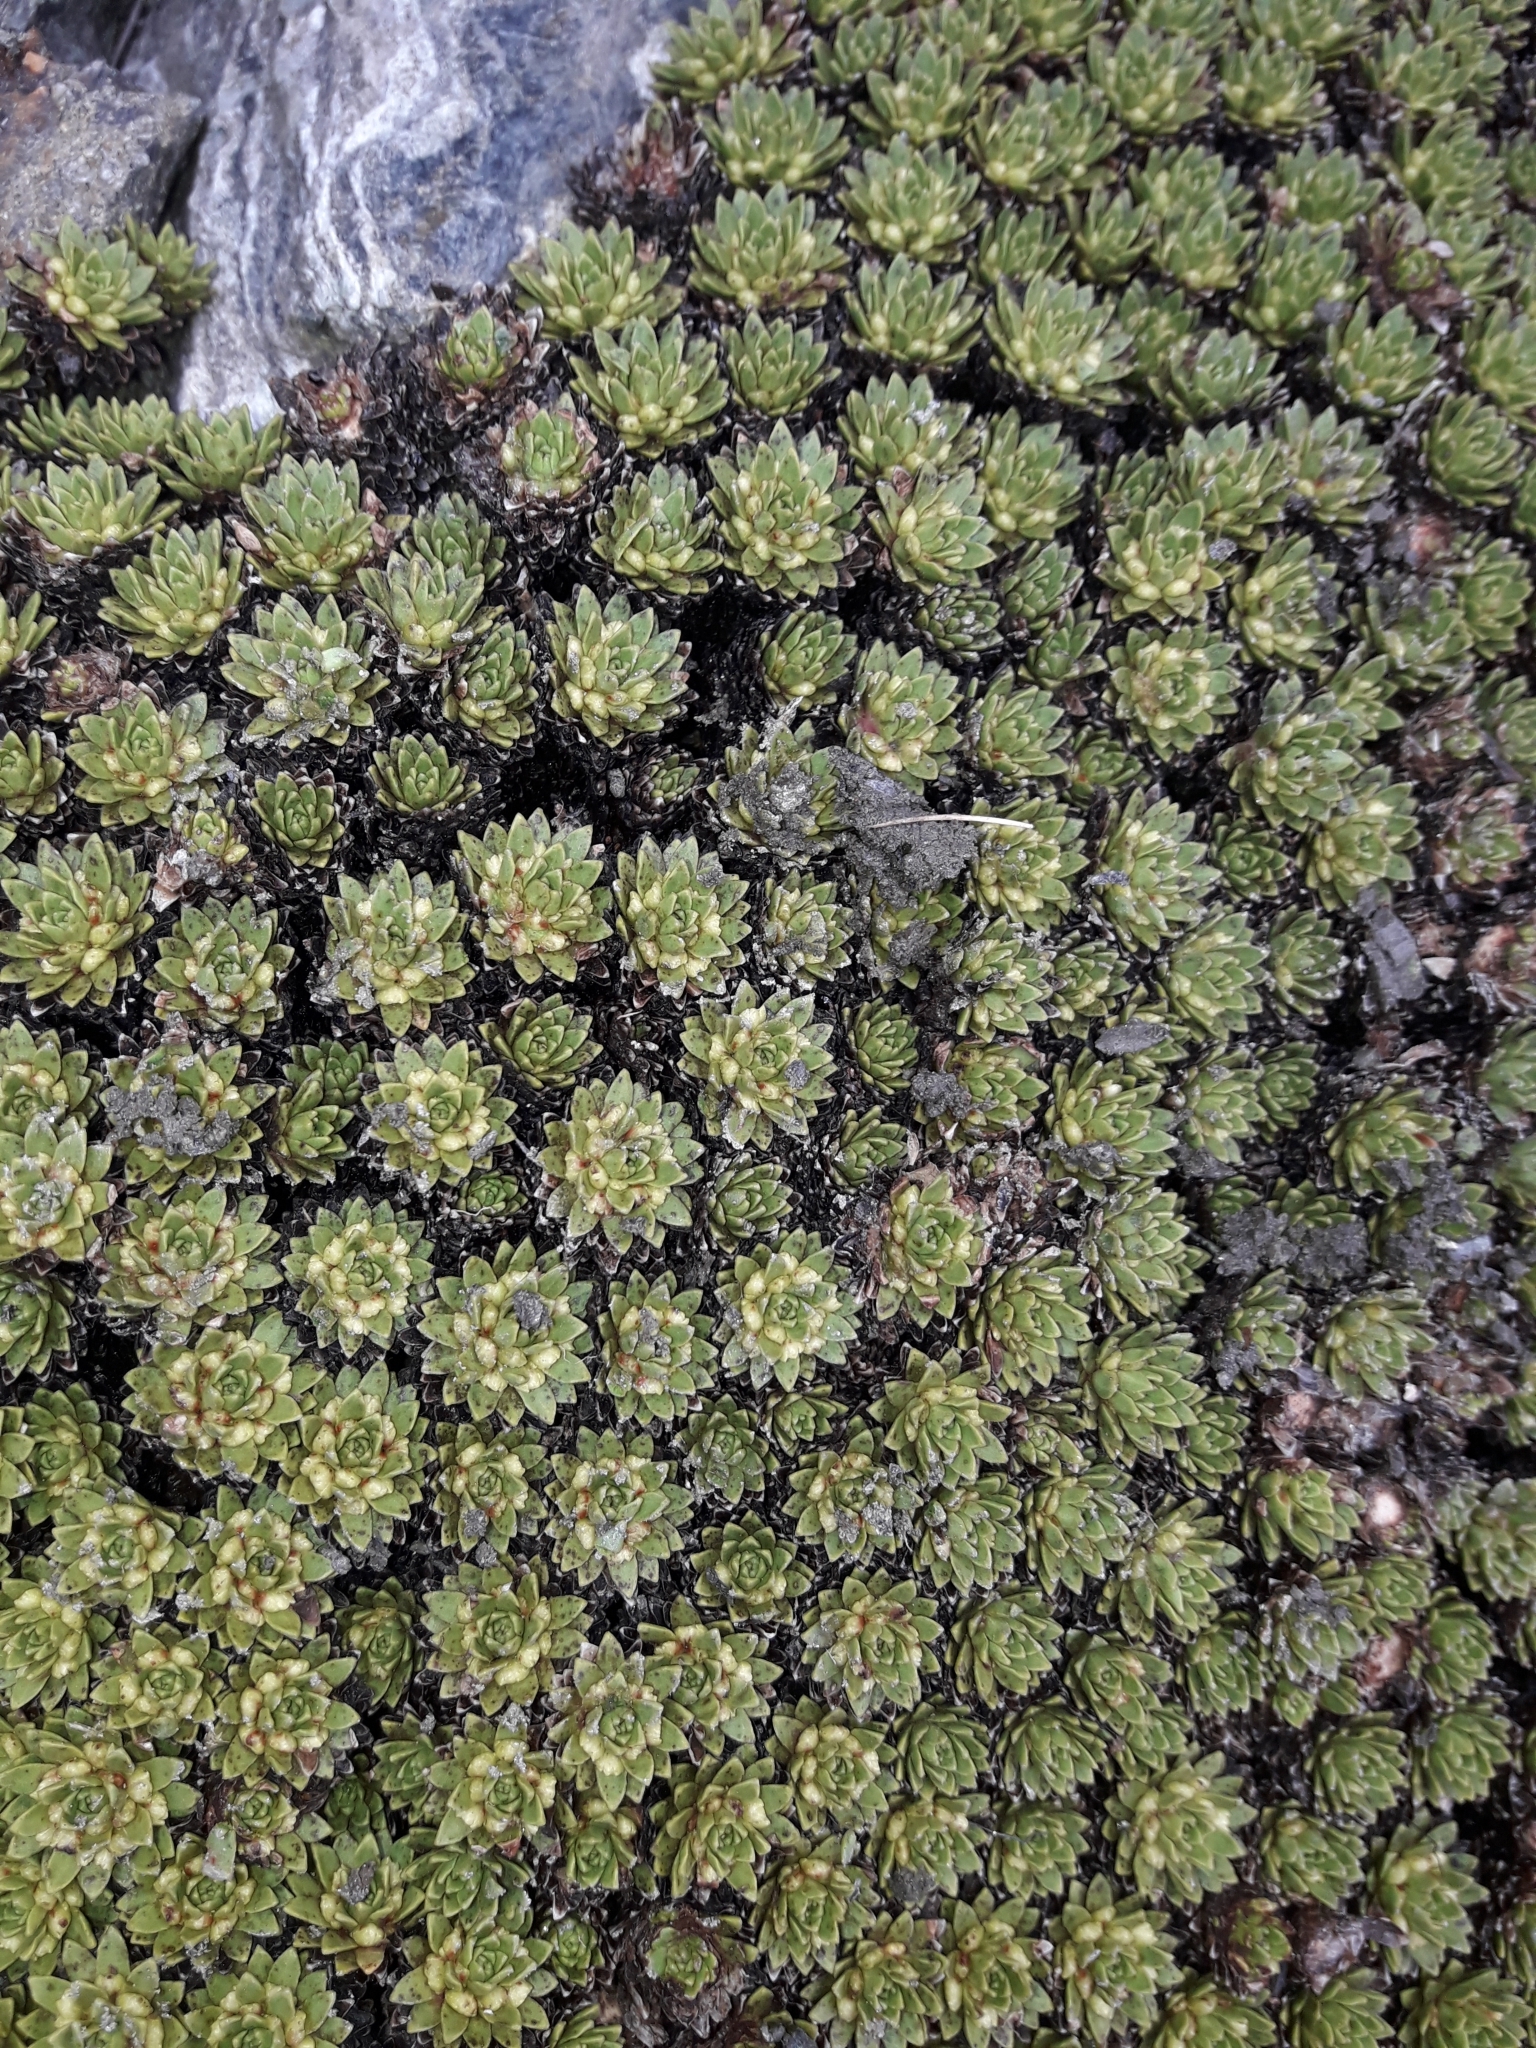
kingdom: Plantae
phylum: Tracheophyta
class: Magnoliopsida
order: Caryophyllales
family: Montiaceae
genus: Hectorella
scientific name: Hectorella caespitosa
